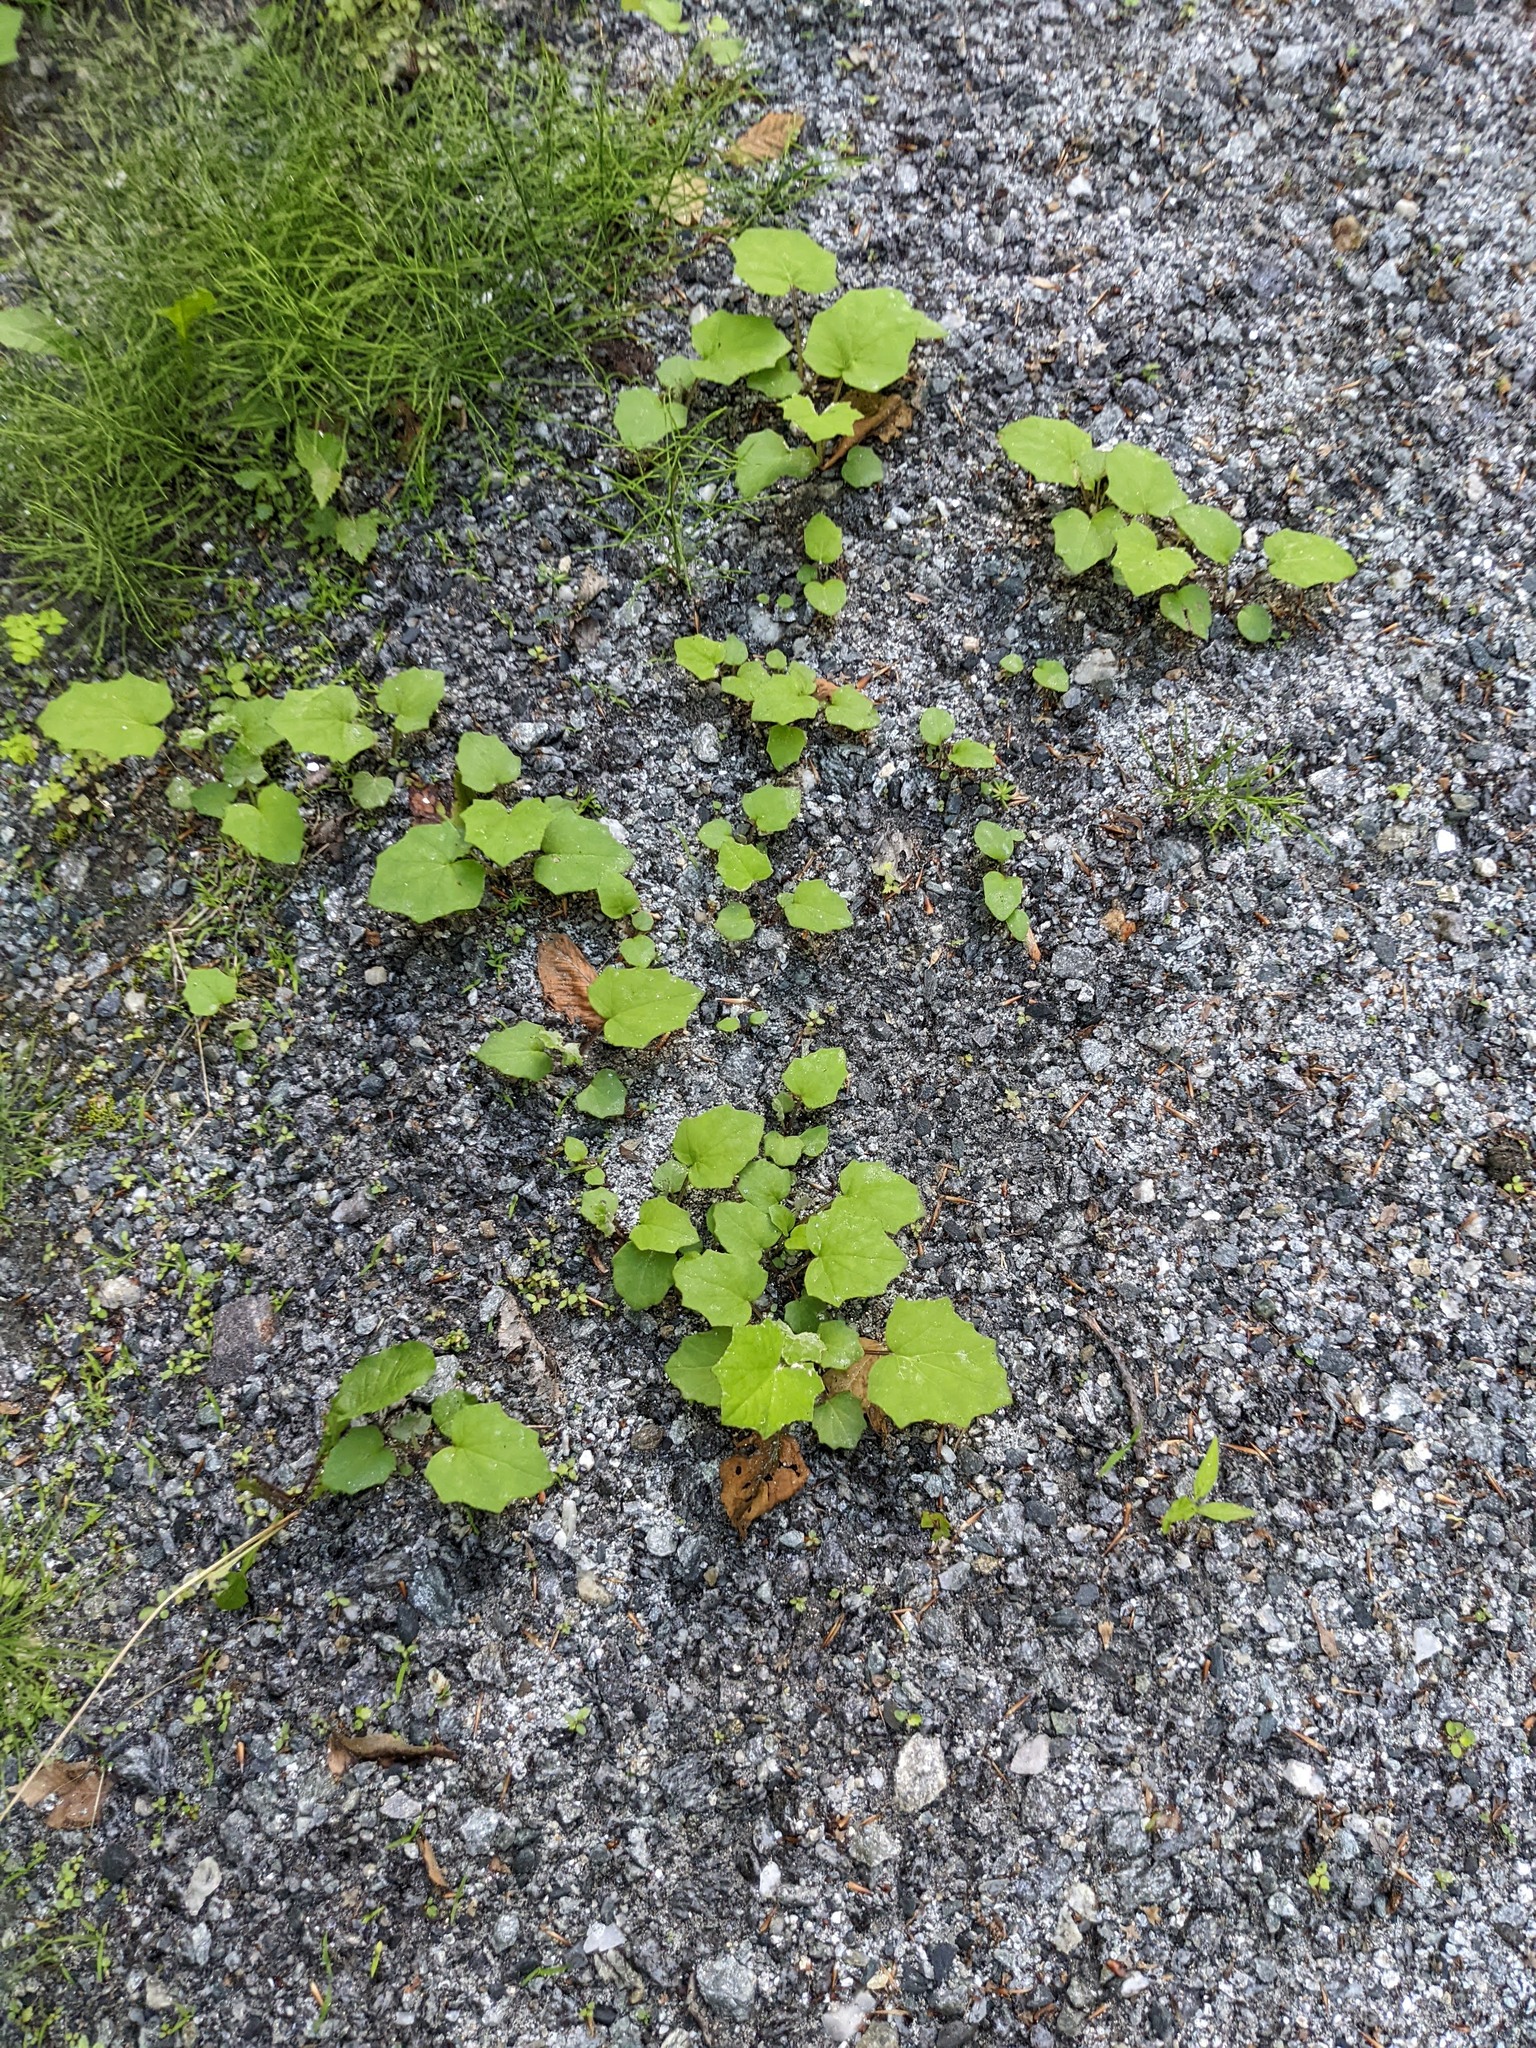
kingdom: Plantae
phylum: Tracheophyta
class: Magnoliopsida
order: Asterales
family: Asteraceae
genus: Tussilago
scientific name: Tussilago farfara
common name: Coltsfoot
